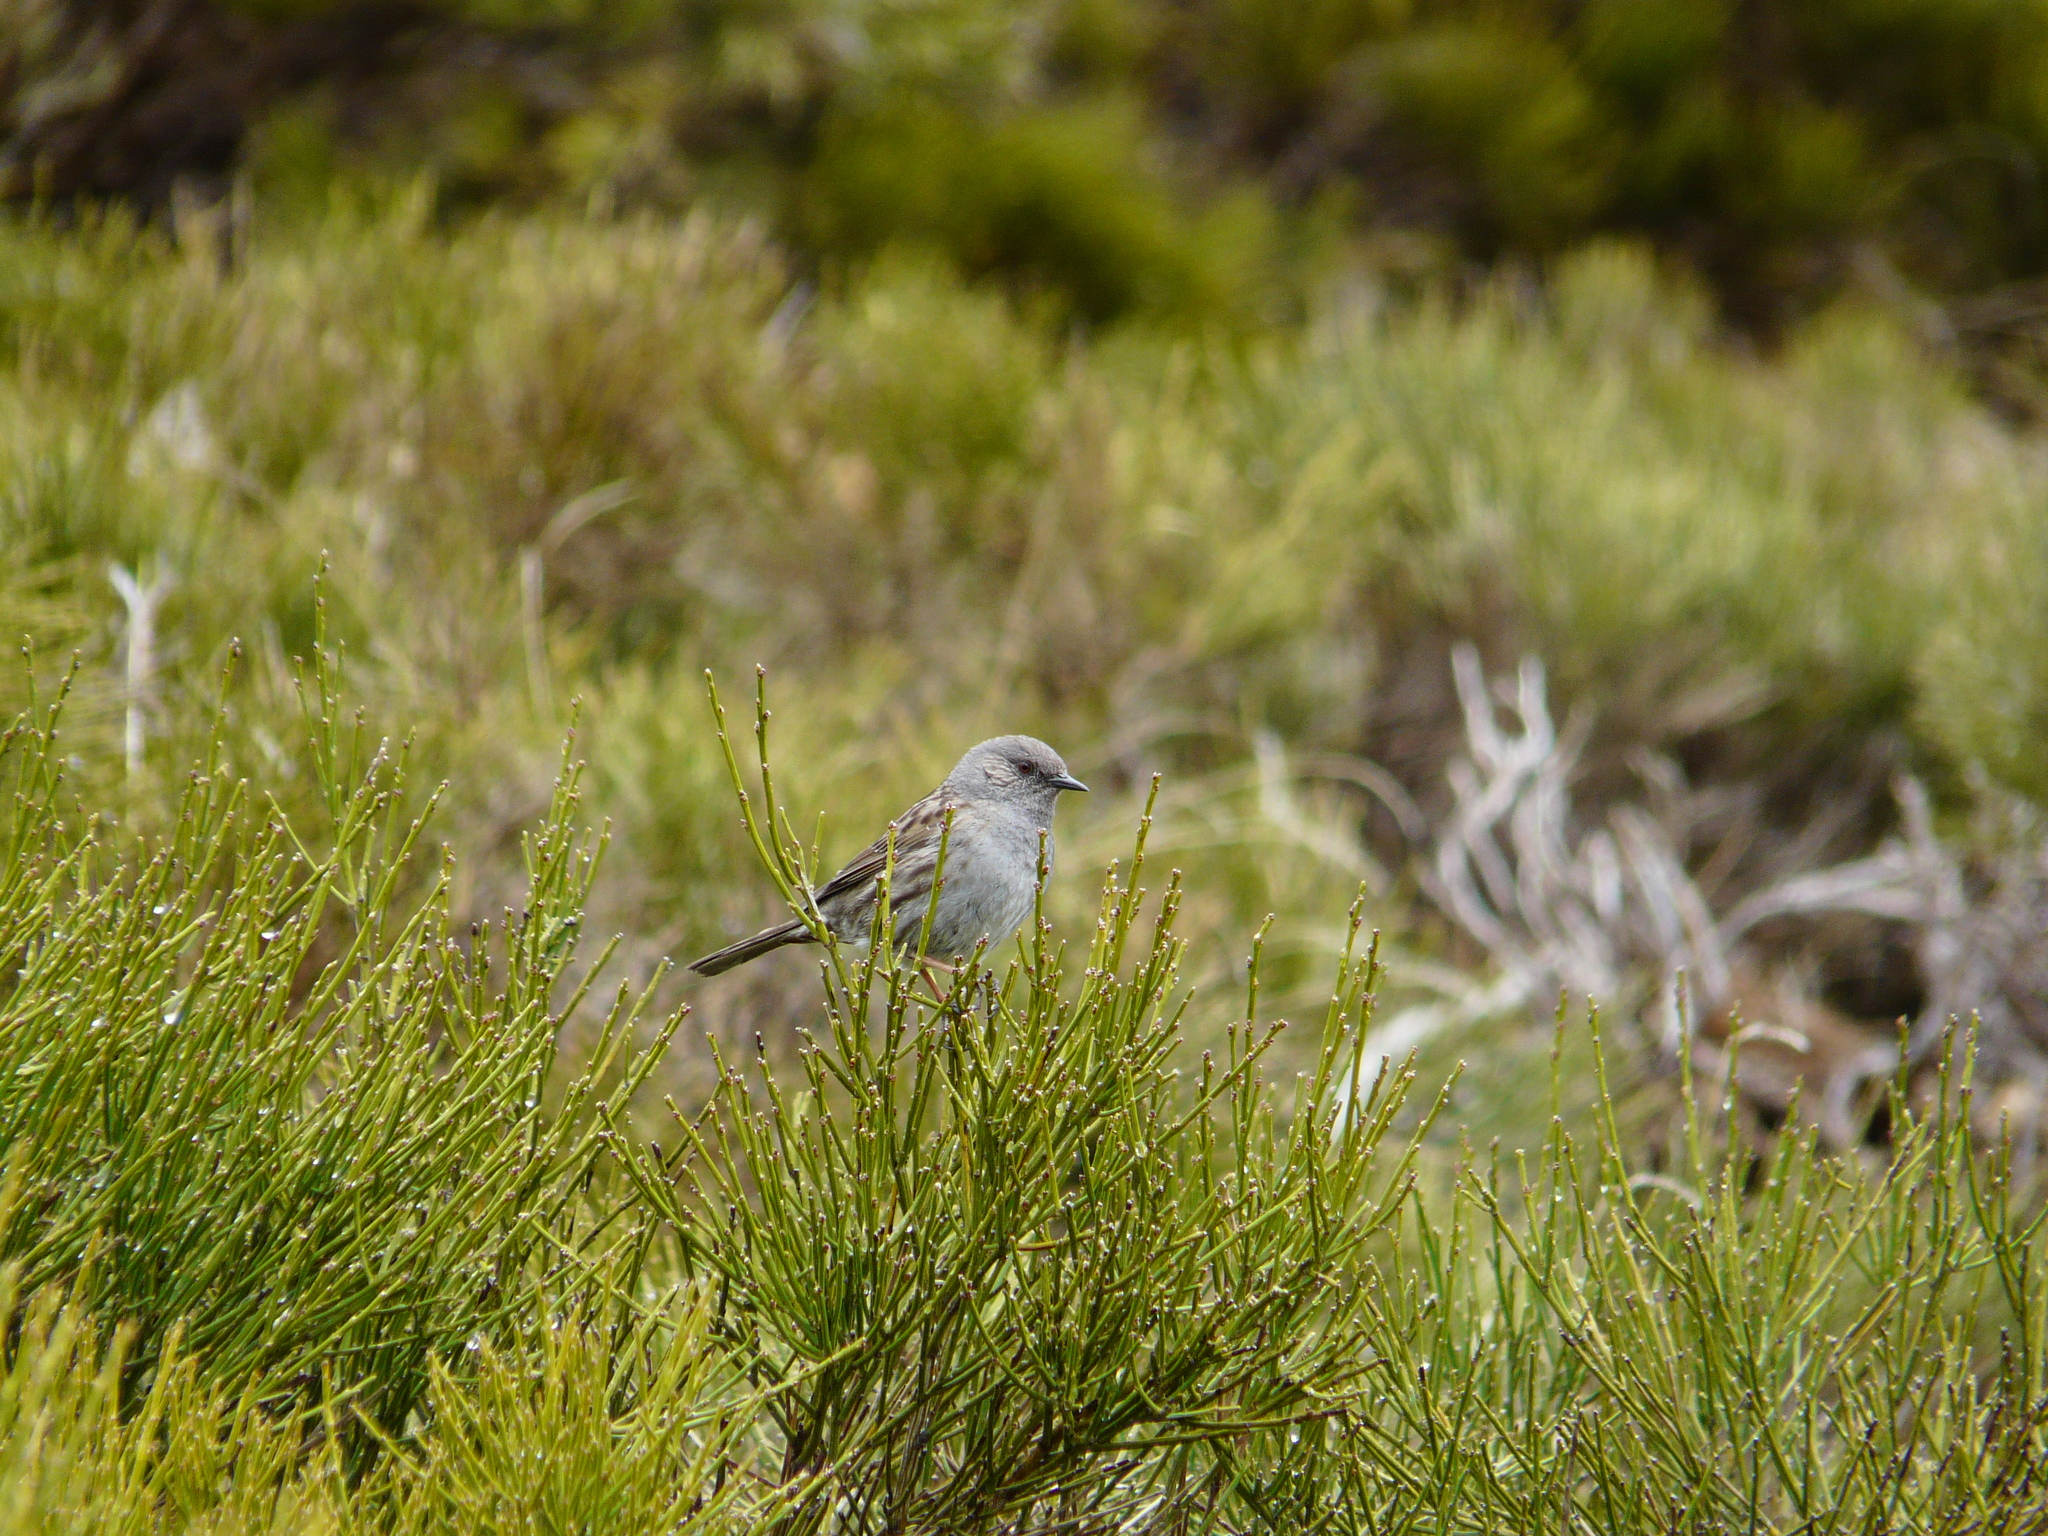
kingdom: Animalia
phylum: Chordata
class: Aves
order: Passeriformes
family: Prunellidae
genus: Prunella
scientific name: Prunella modularis
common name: Dunnock
